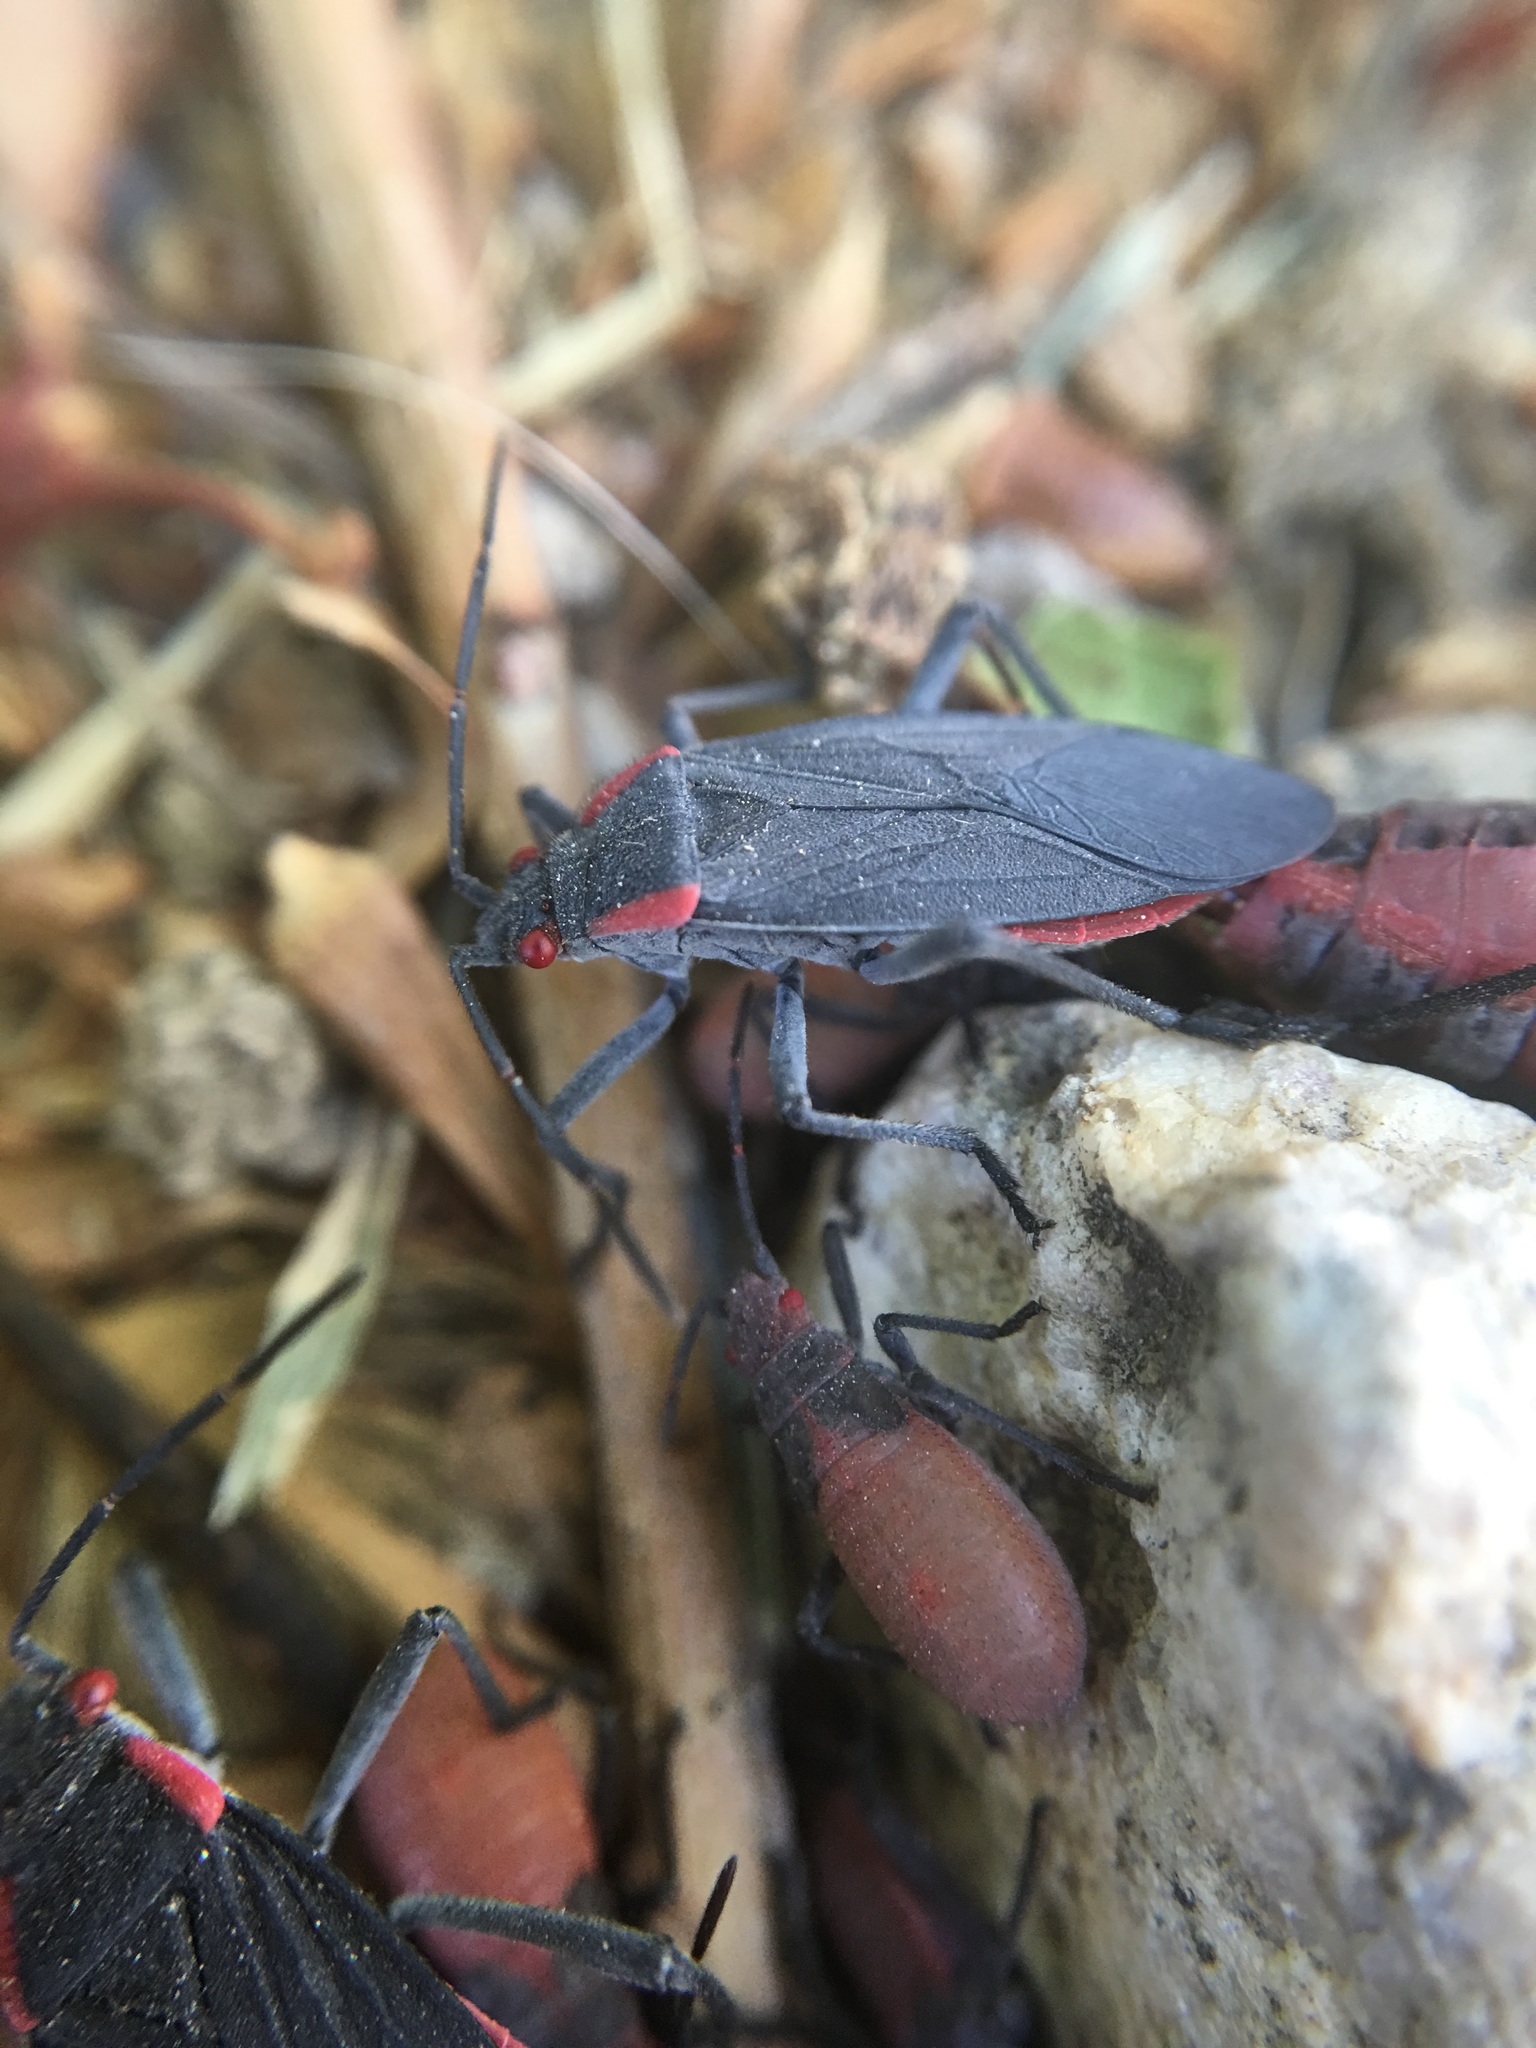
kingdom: Animalia
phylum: Arthropoda
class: Insecta
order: Hemiptera
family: Rhopalidae
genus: Jadera
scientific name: Jadera haematoloma
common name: Red-shouldered bug
